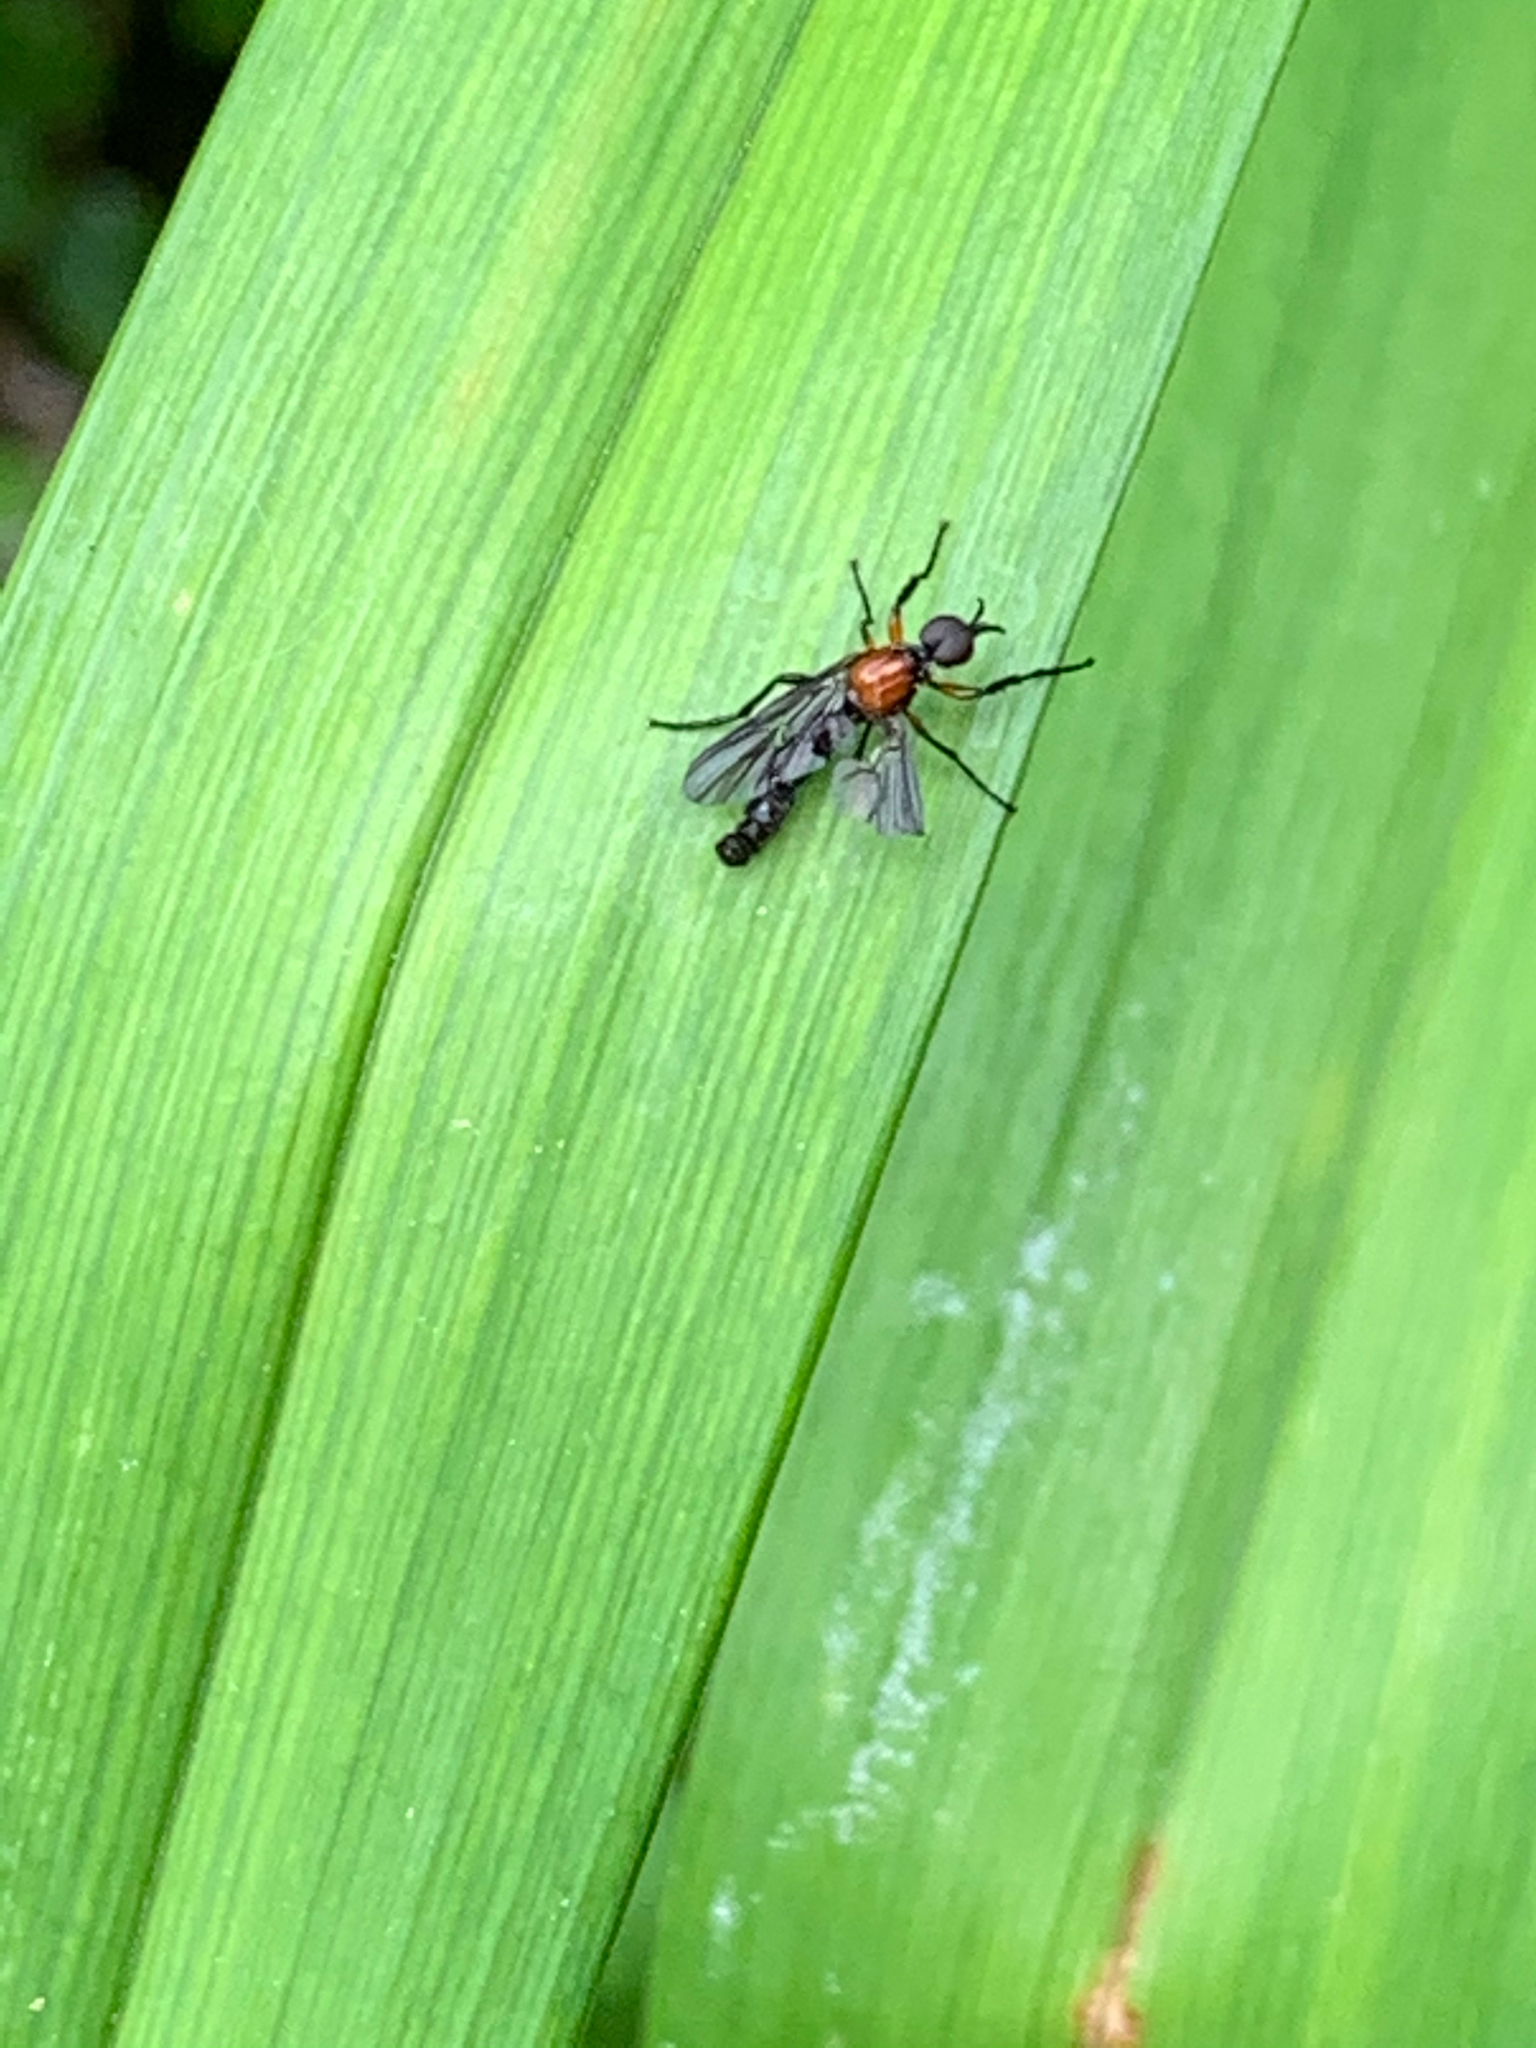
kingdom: Animalia
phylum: Arthropoda
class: Insecta
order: Diptera
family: Bibionidae
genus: Dilophus
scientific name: Dilophus spinipes
